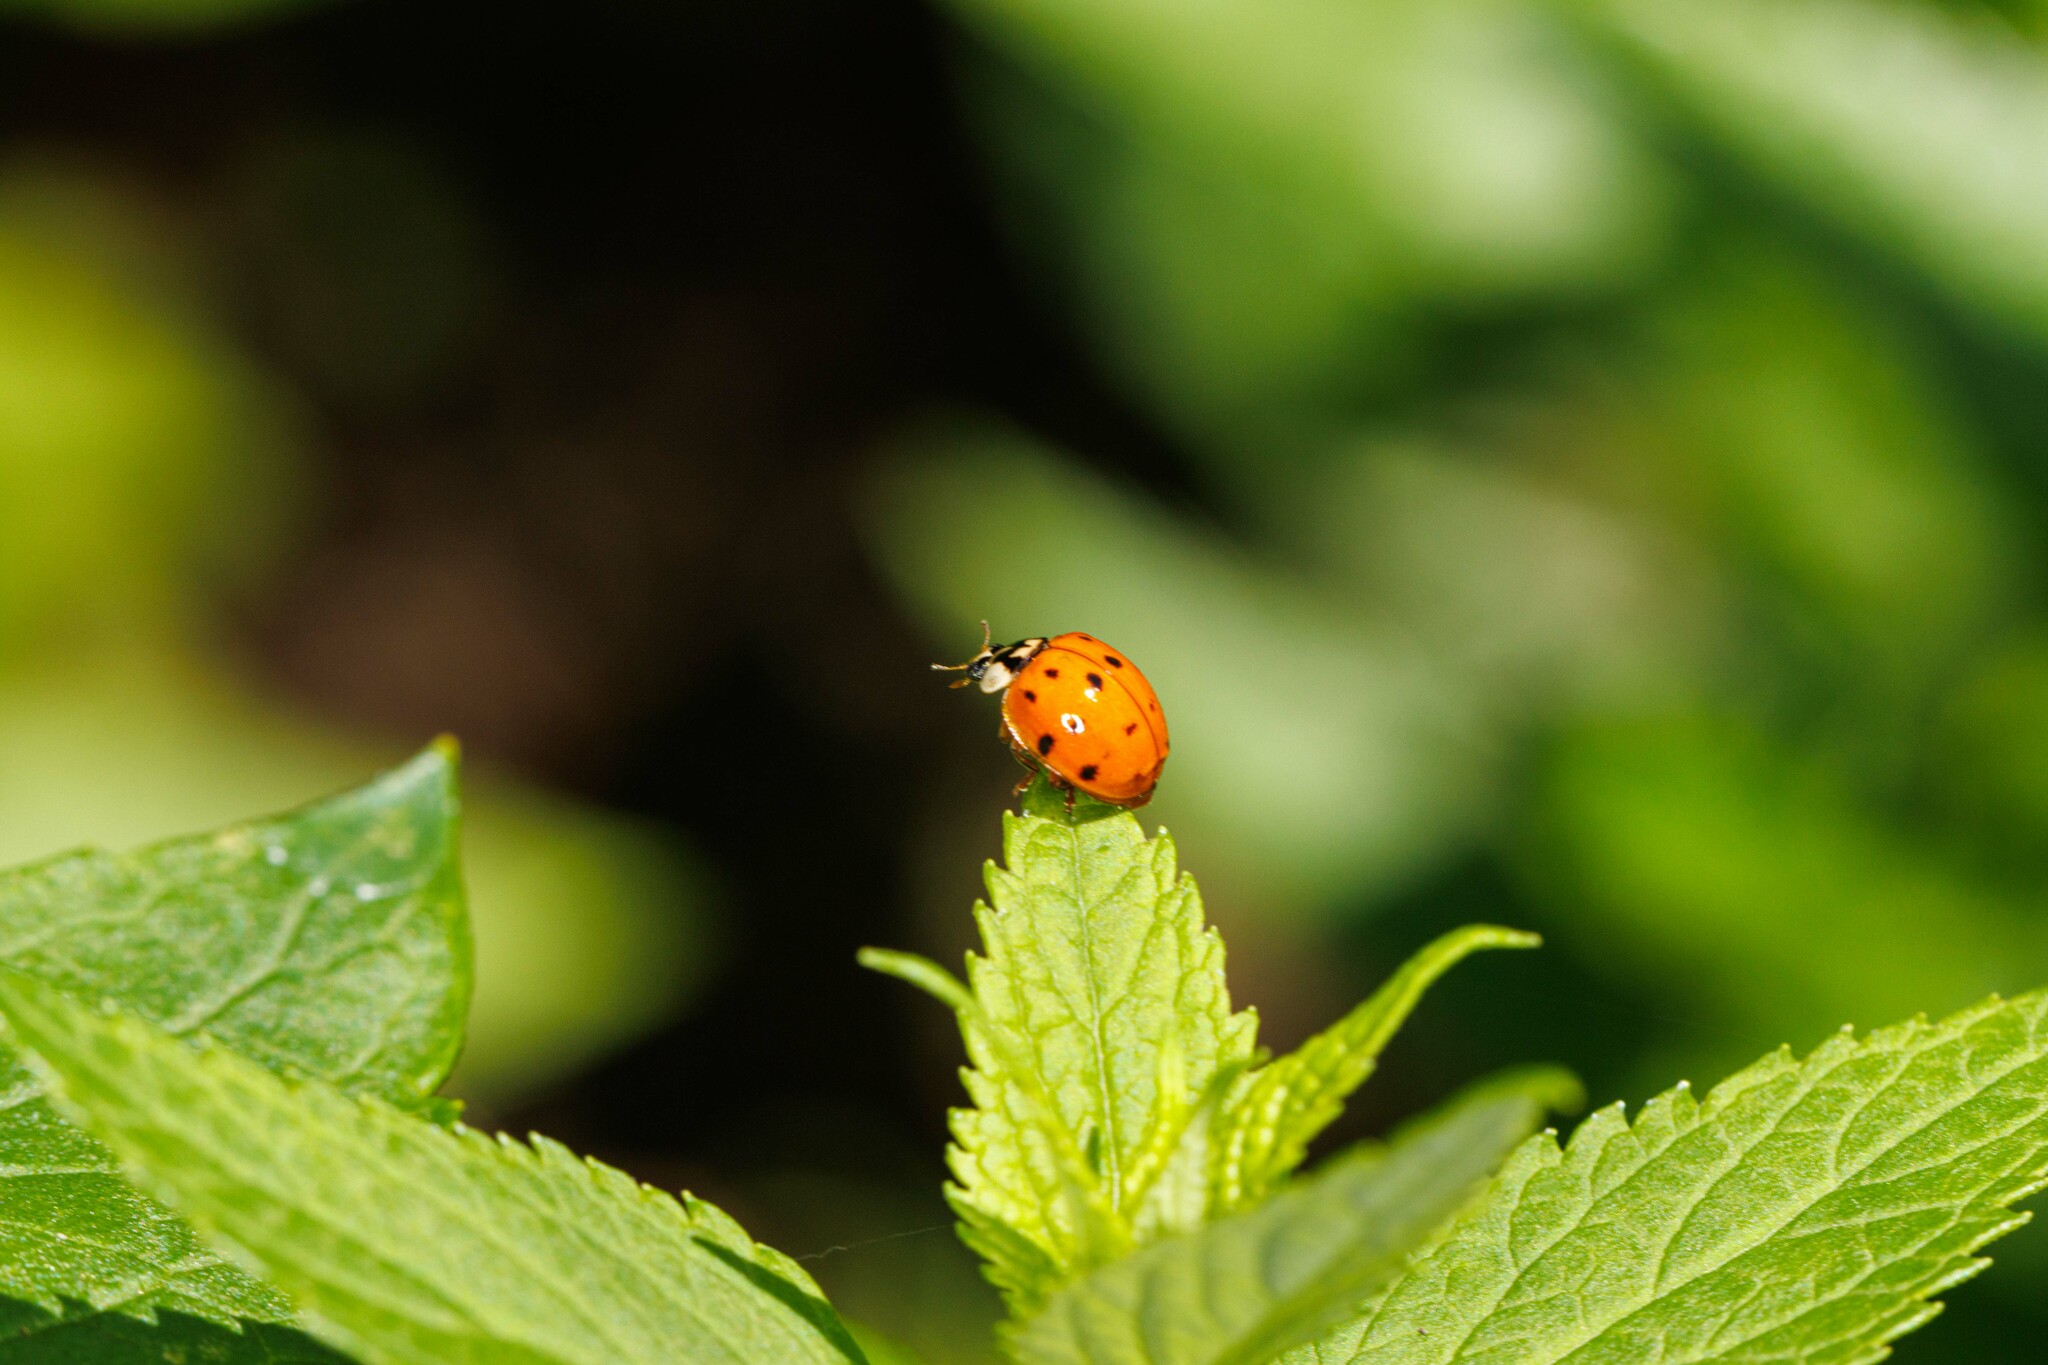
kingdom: Animalia
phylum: Arthropoda
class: Insecta
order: Coleoptera
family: Coccinellidae
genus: Harmonia
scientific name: Harmonia axyridis
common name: Harlequin ladybird
